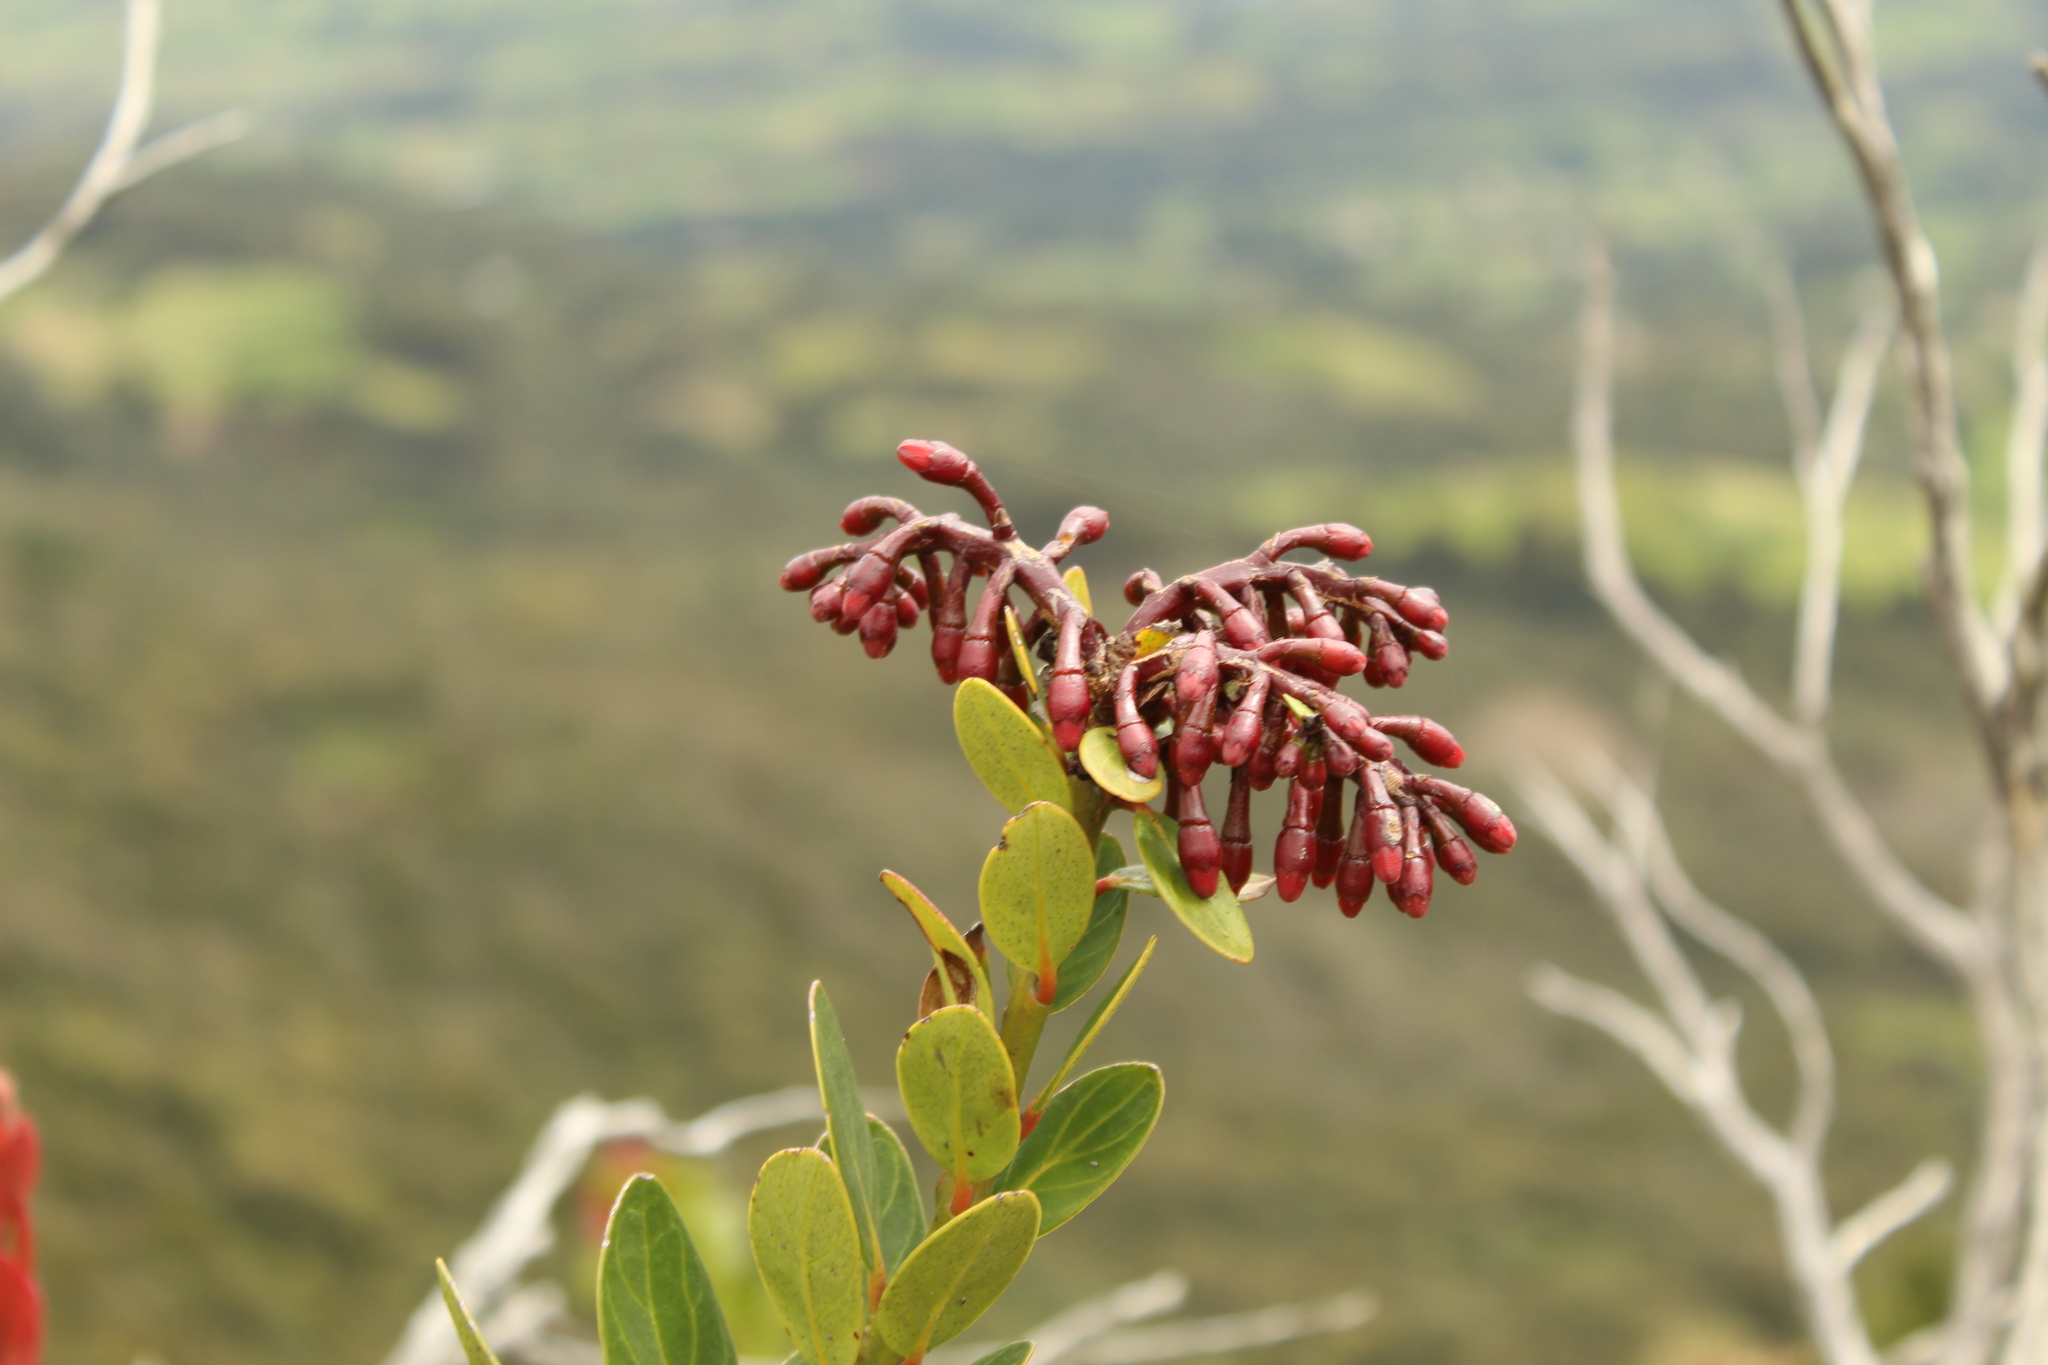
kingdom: Plantae
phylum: Tracheophyta
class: Magnoliopsida
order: Ericales
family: Ericaceae
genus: Macleania
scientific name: Macleania rupestris
